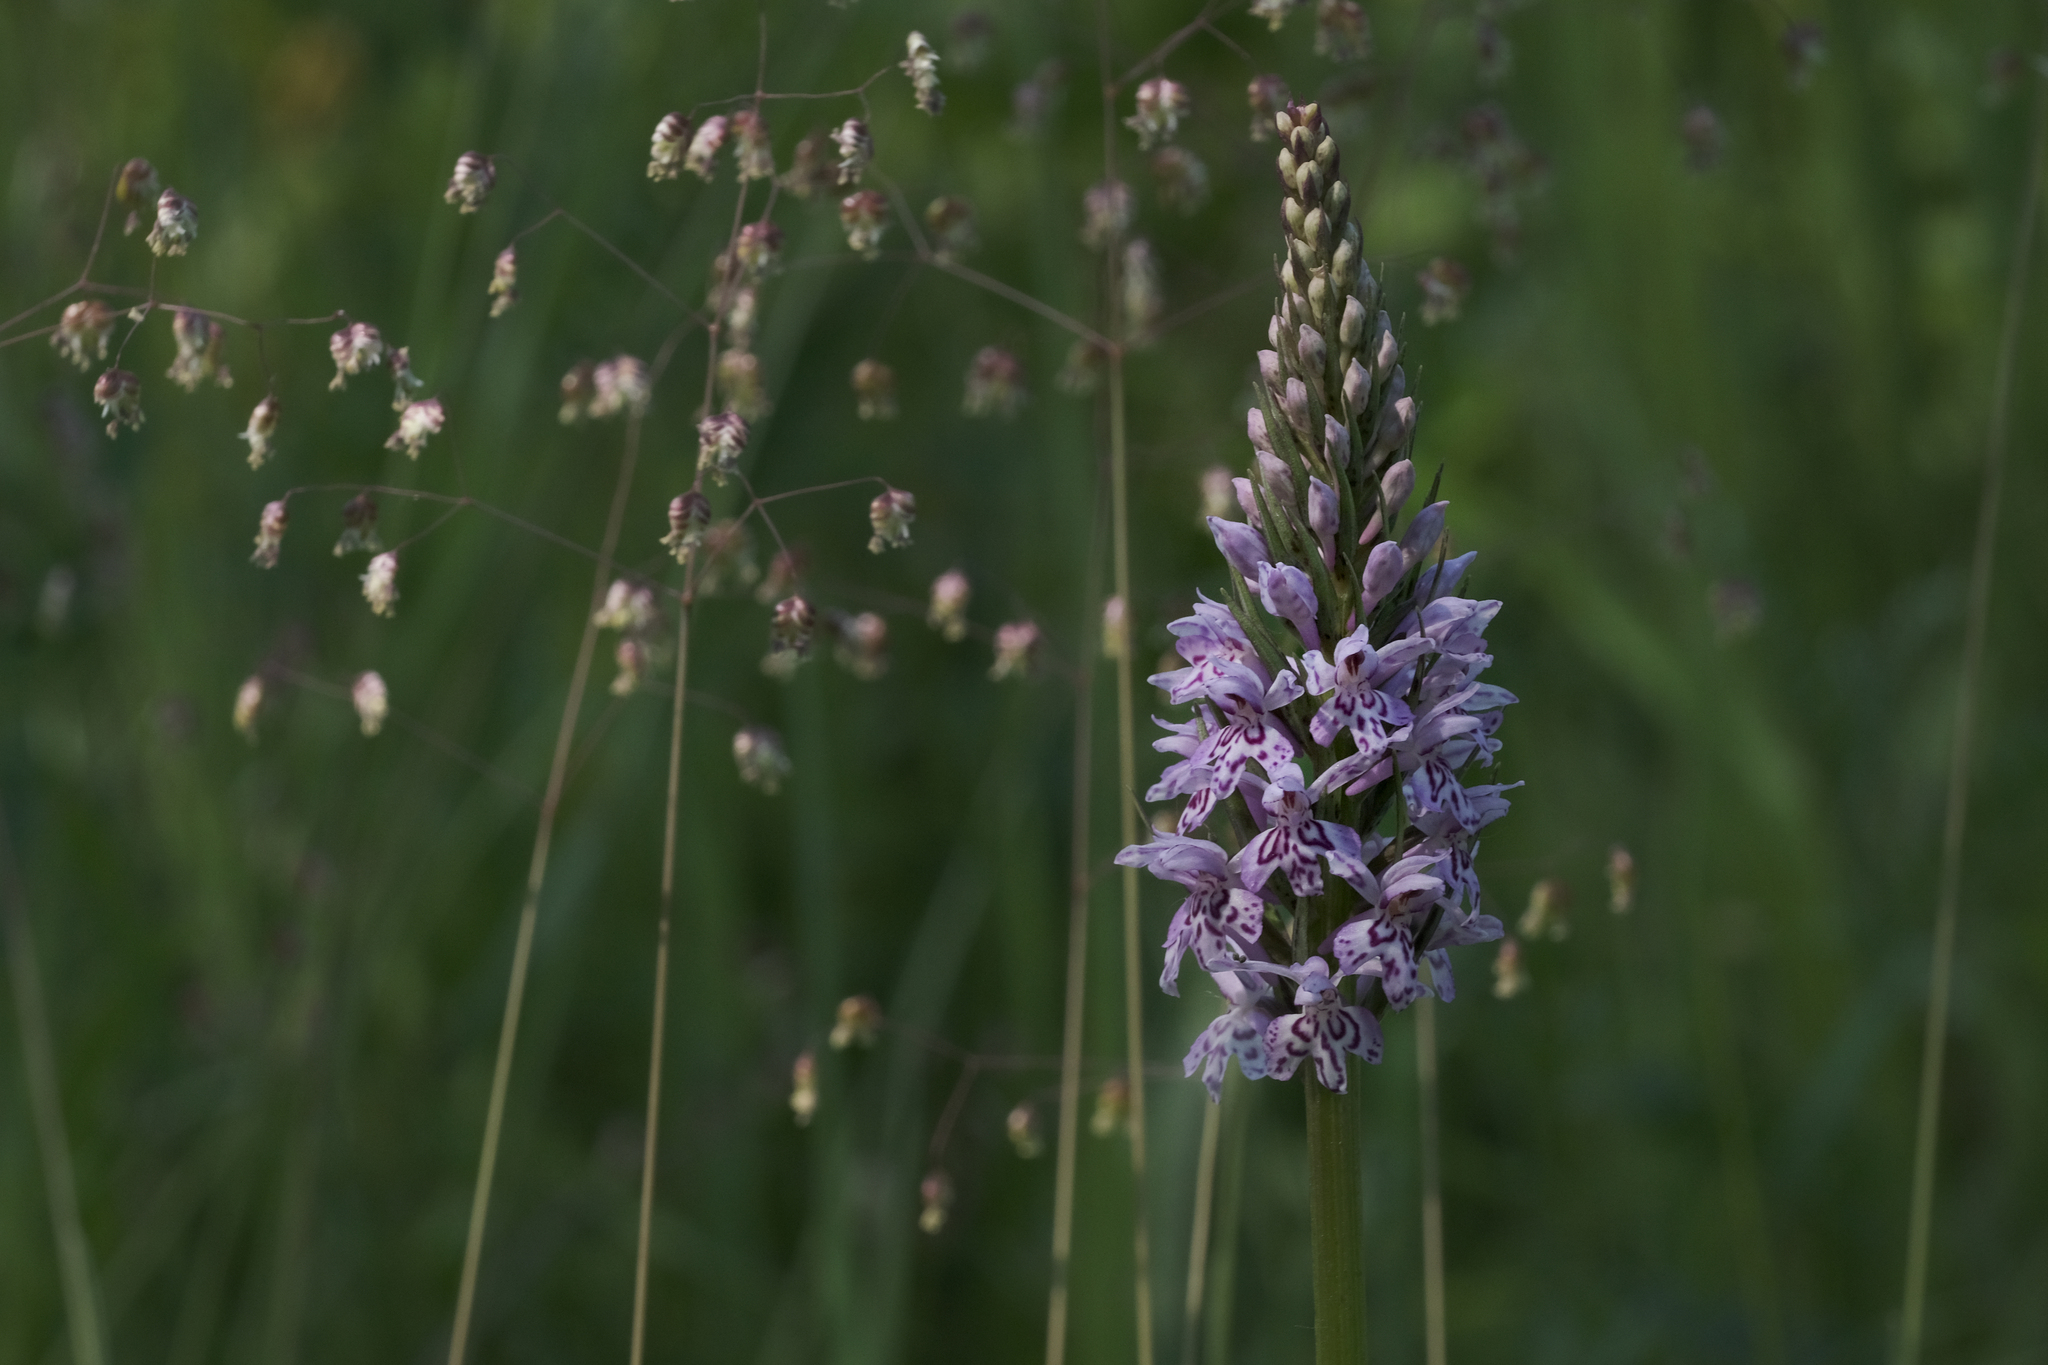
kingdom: Plantae
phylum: Tracheophyta
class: Liliopsida
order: Asparagales
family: Orchidaceae
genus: Dactylorhiza
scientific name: Dactylorhiza maculata
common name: Heath spotted-orchid
